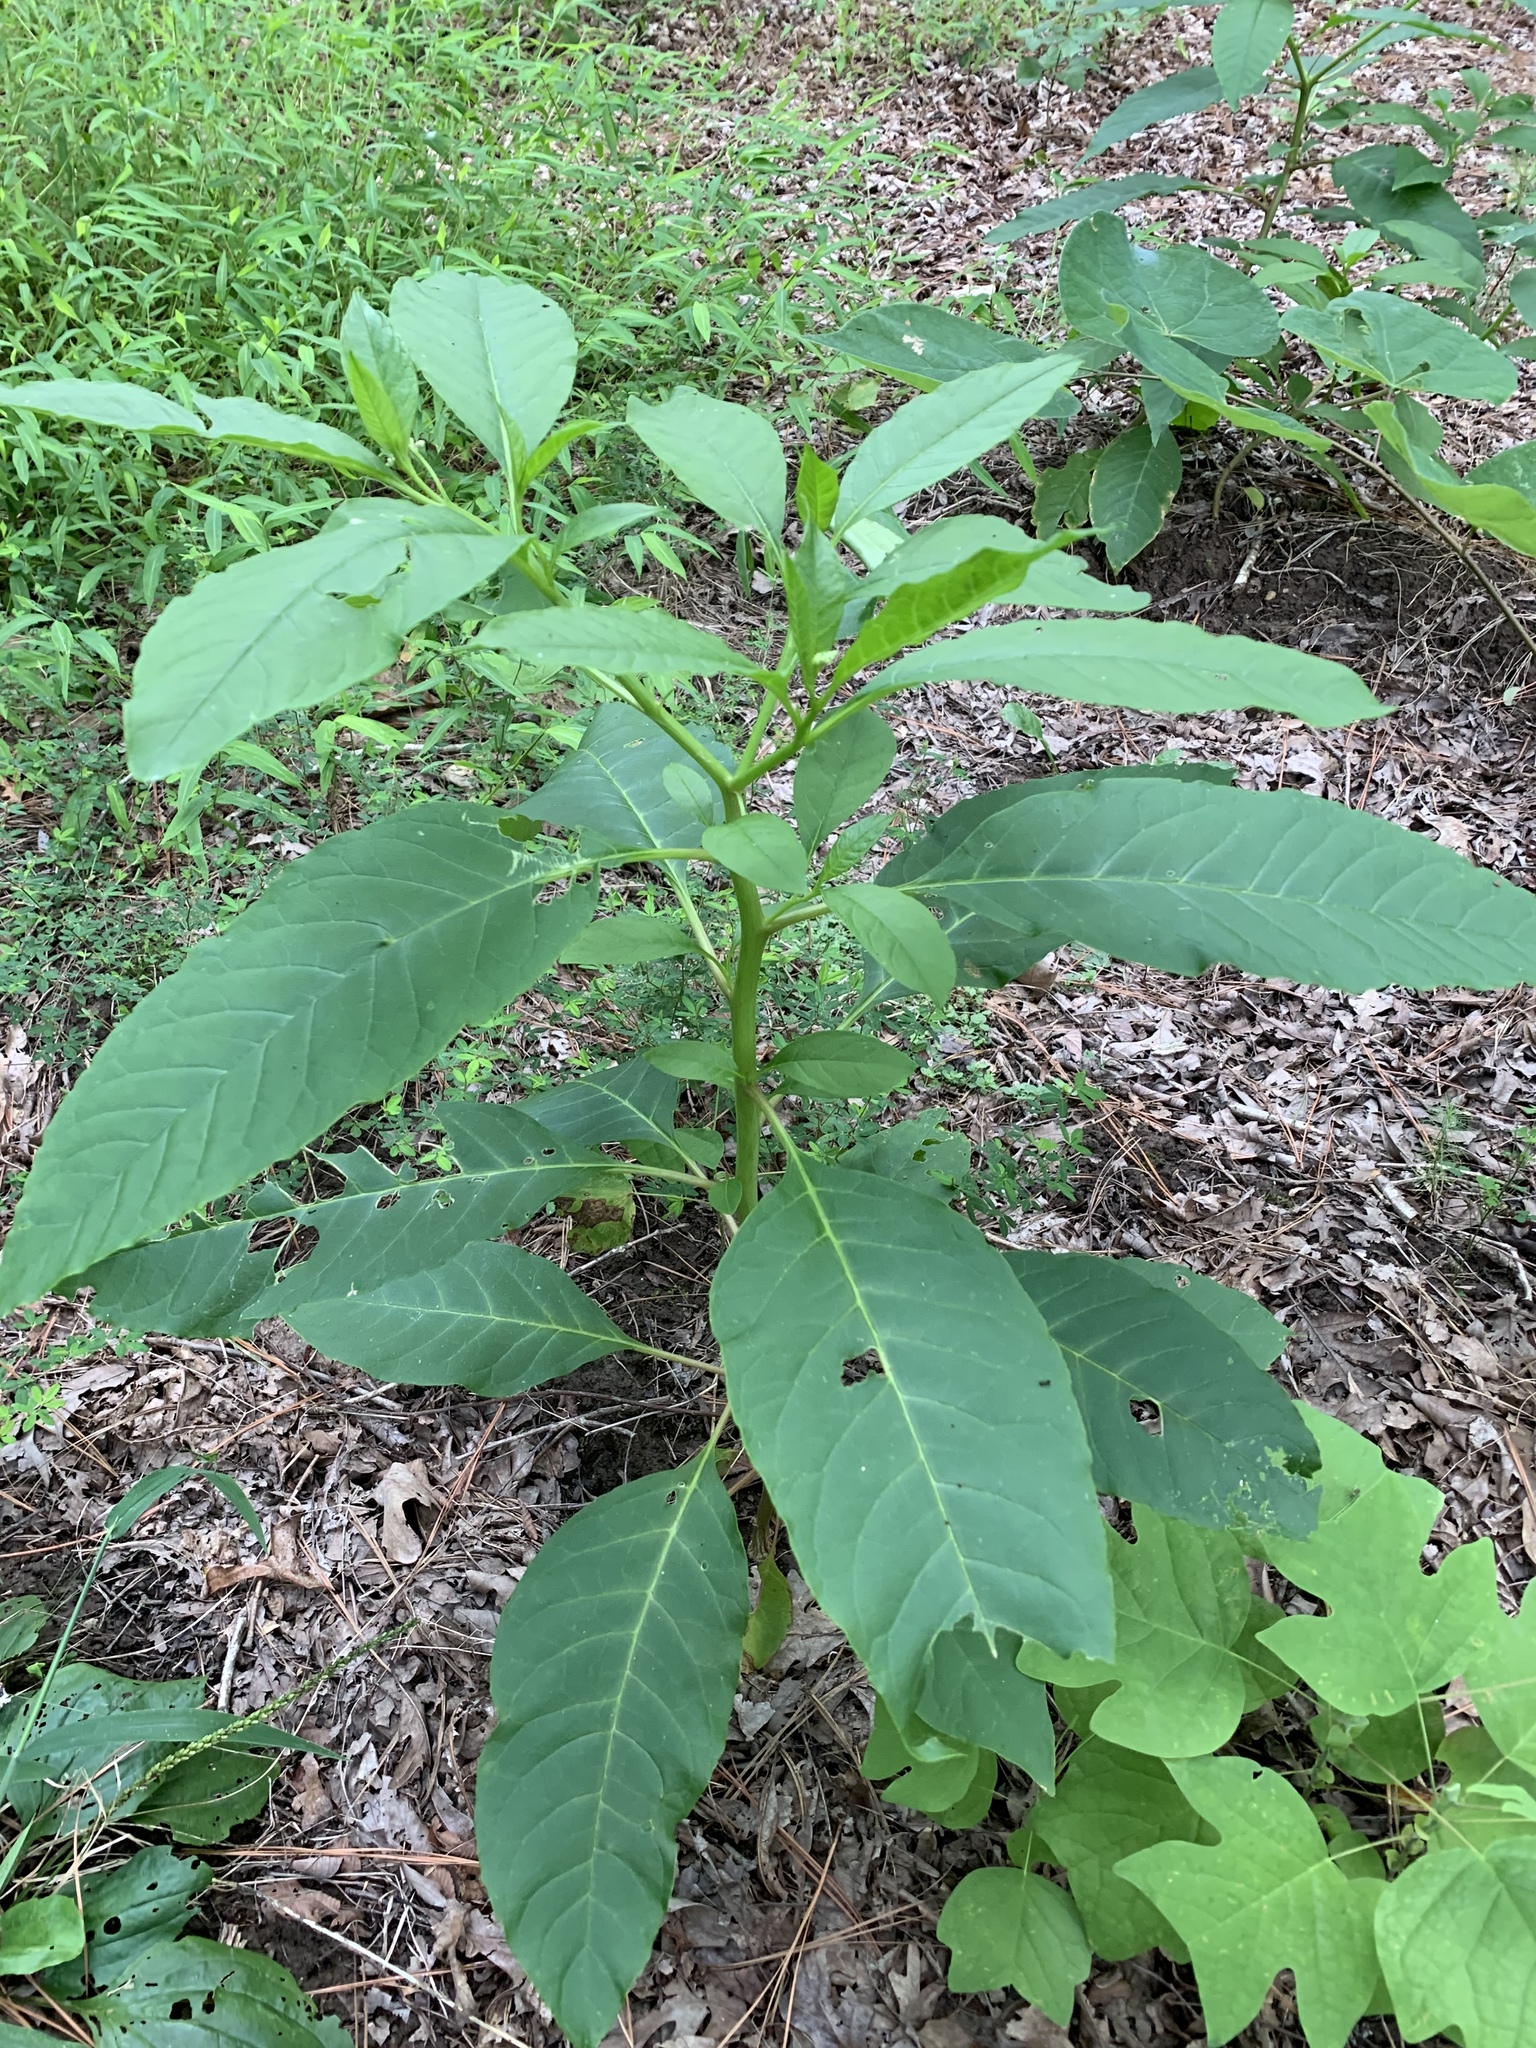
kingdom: Plantae
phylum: Tracheophyta
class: Magnoliopsida
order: Caryophyllales
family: Phytolaccaceae
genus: Phytolacca
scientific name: Phytolacca americana
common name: American pokeweed
